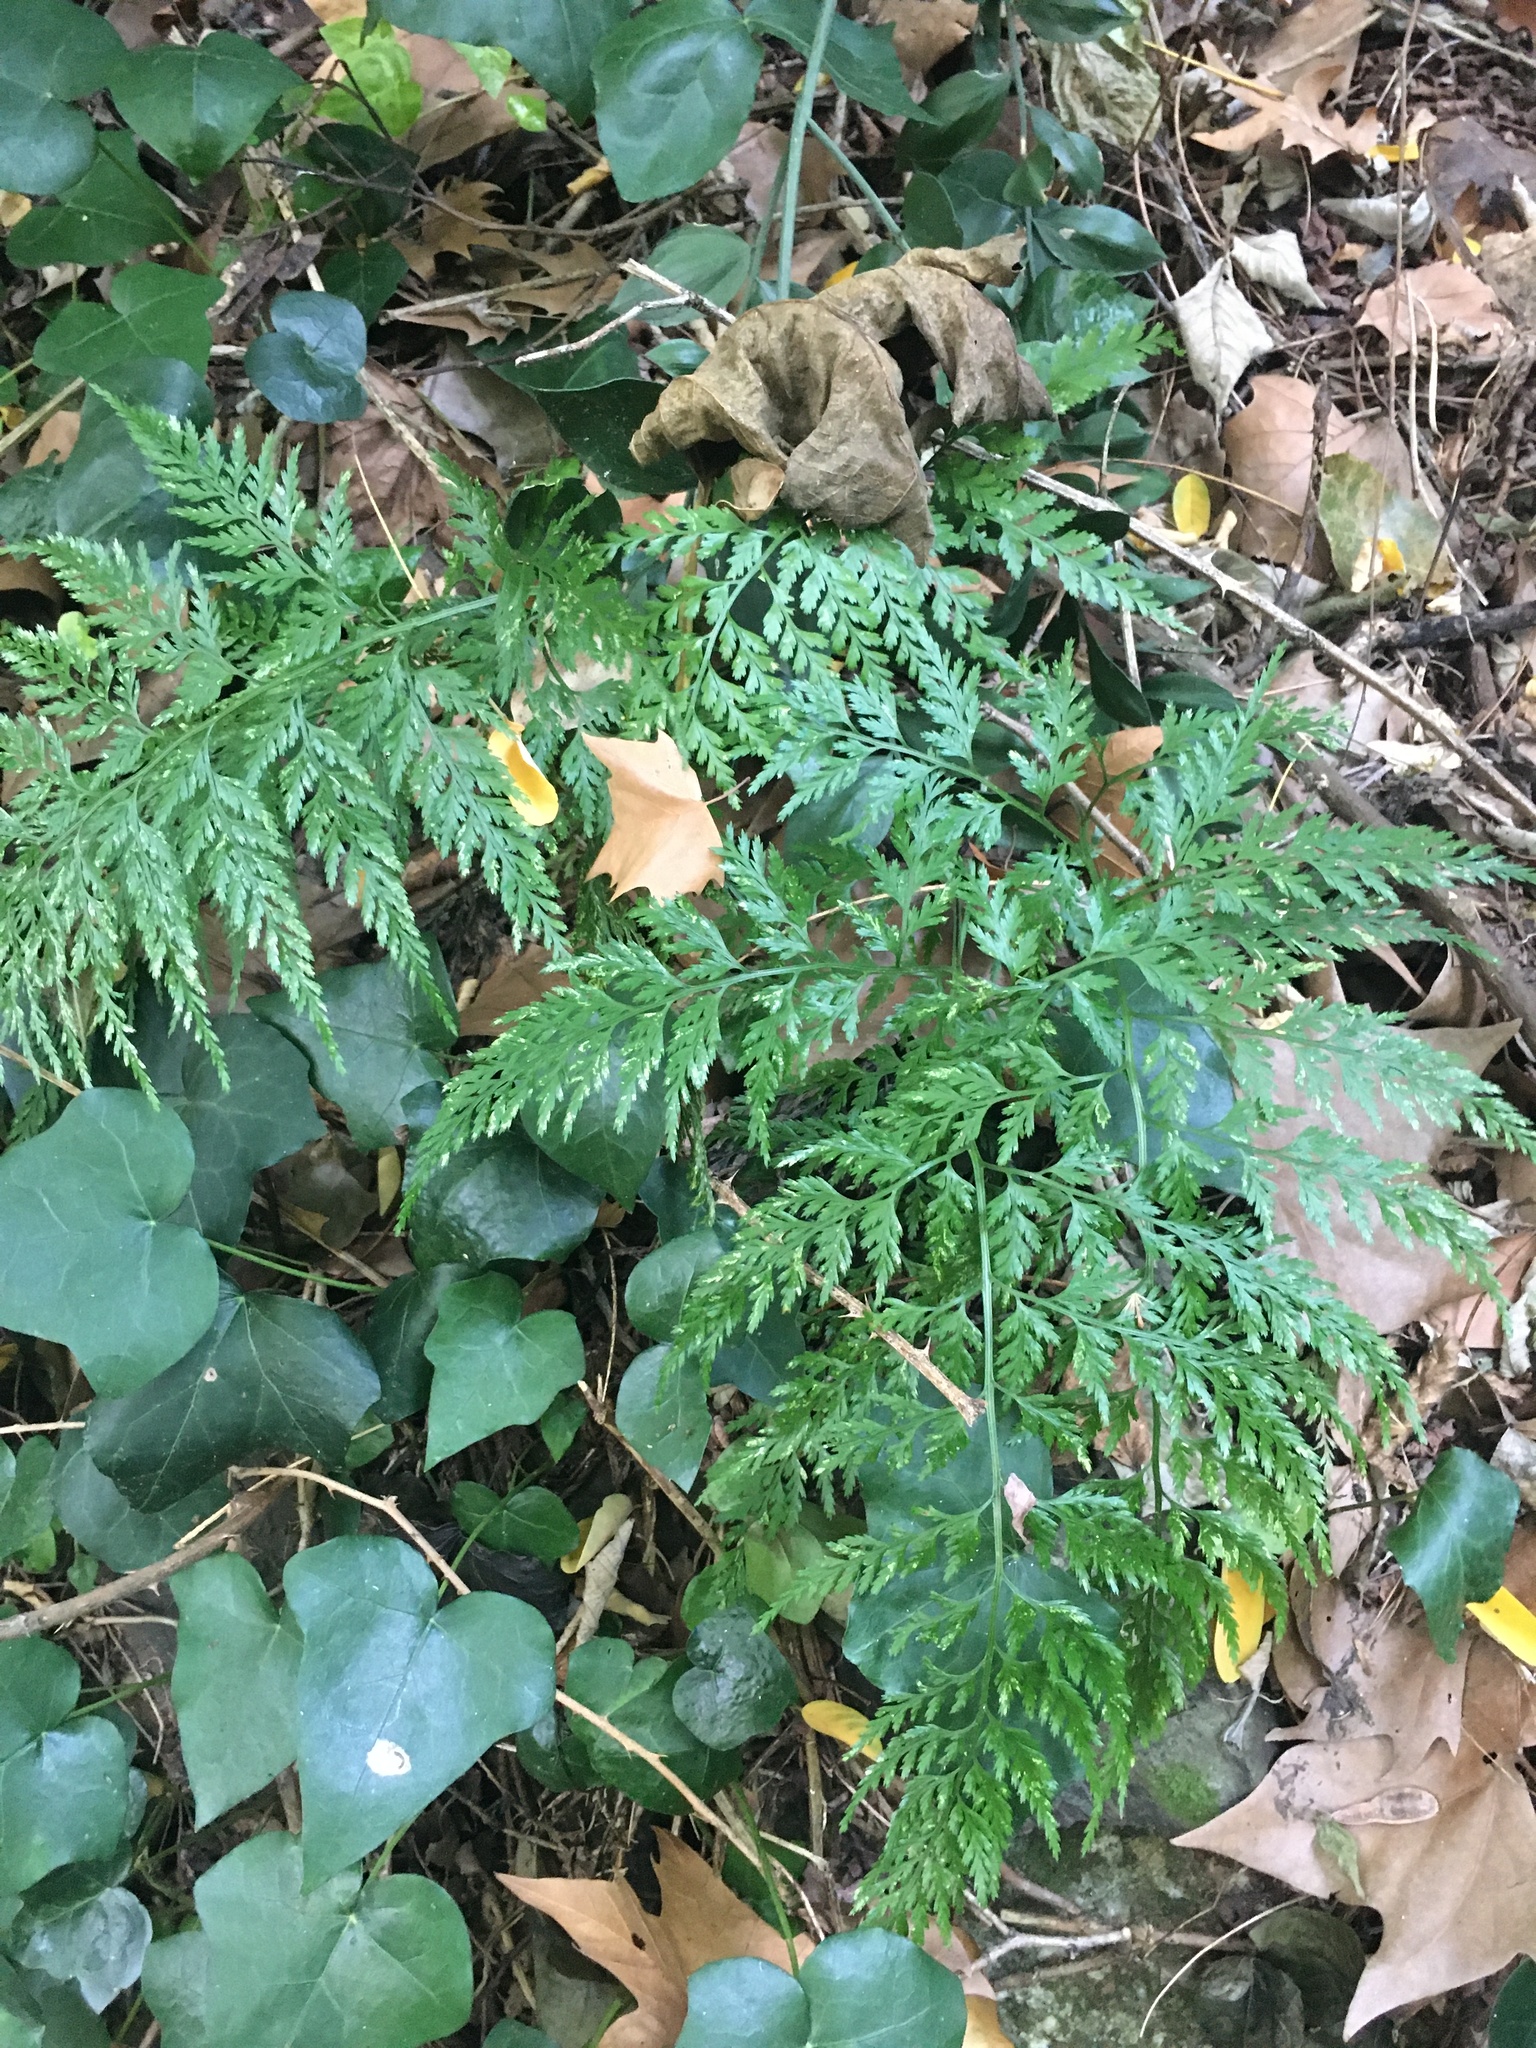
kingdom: Plantae
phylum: Tracheophyta
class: Polypodiopsida
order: Polypodiales
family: Aspleniaceae
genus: Asplenium
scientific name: Asplenium onopteris
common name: Irish spleenwort
